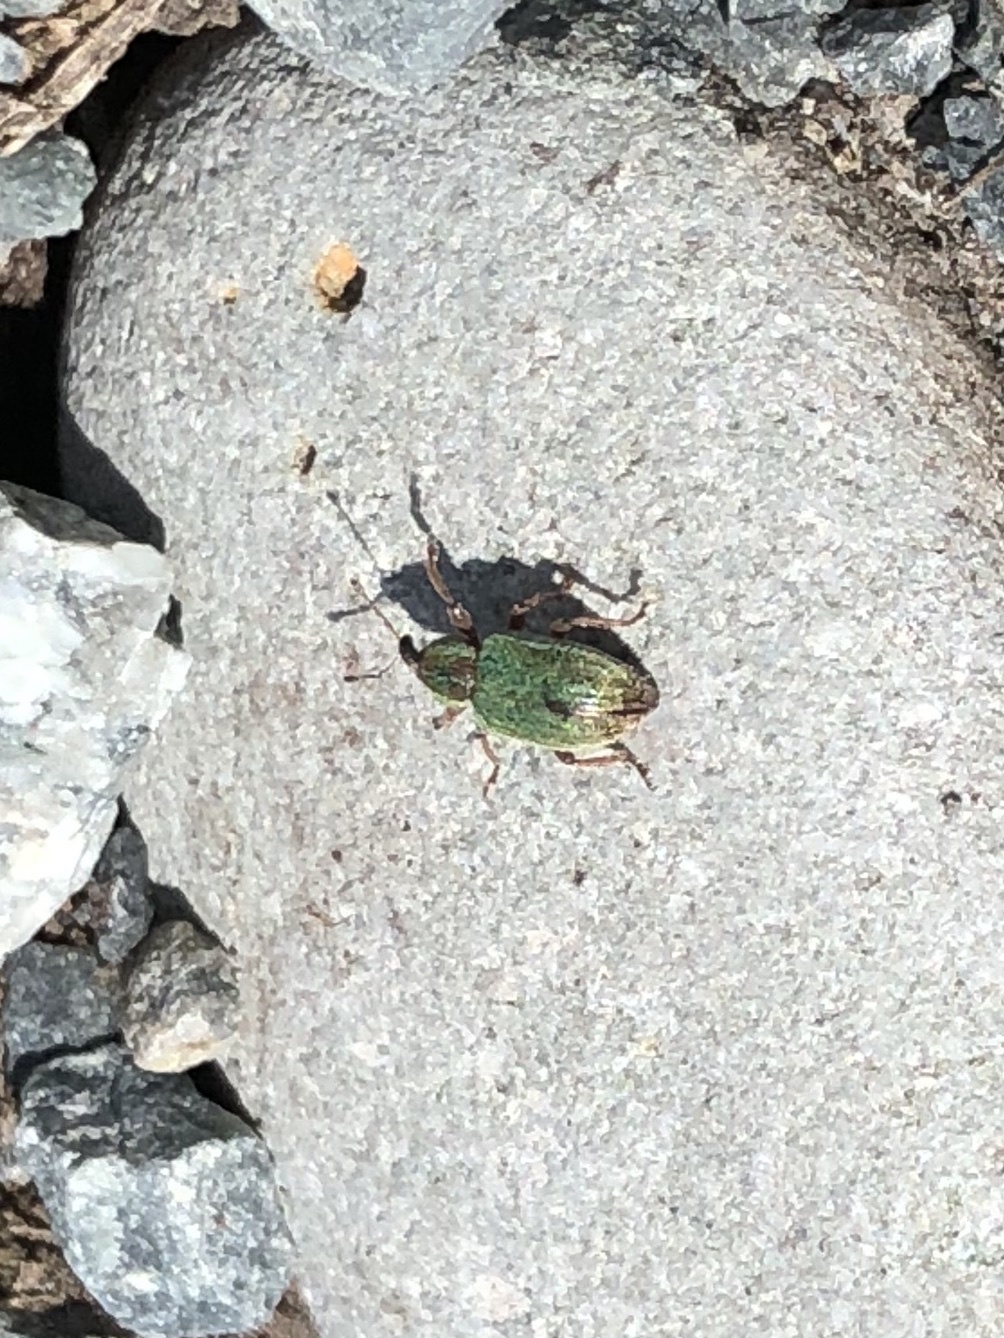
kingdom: Animalia
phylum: Arthropoda
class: Insecta
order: Coleoptera
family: Curculionidae
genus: Hypera
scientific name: Hypera nigrirostris
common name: Black-beaked green weevil
